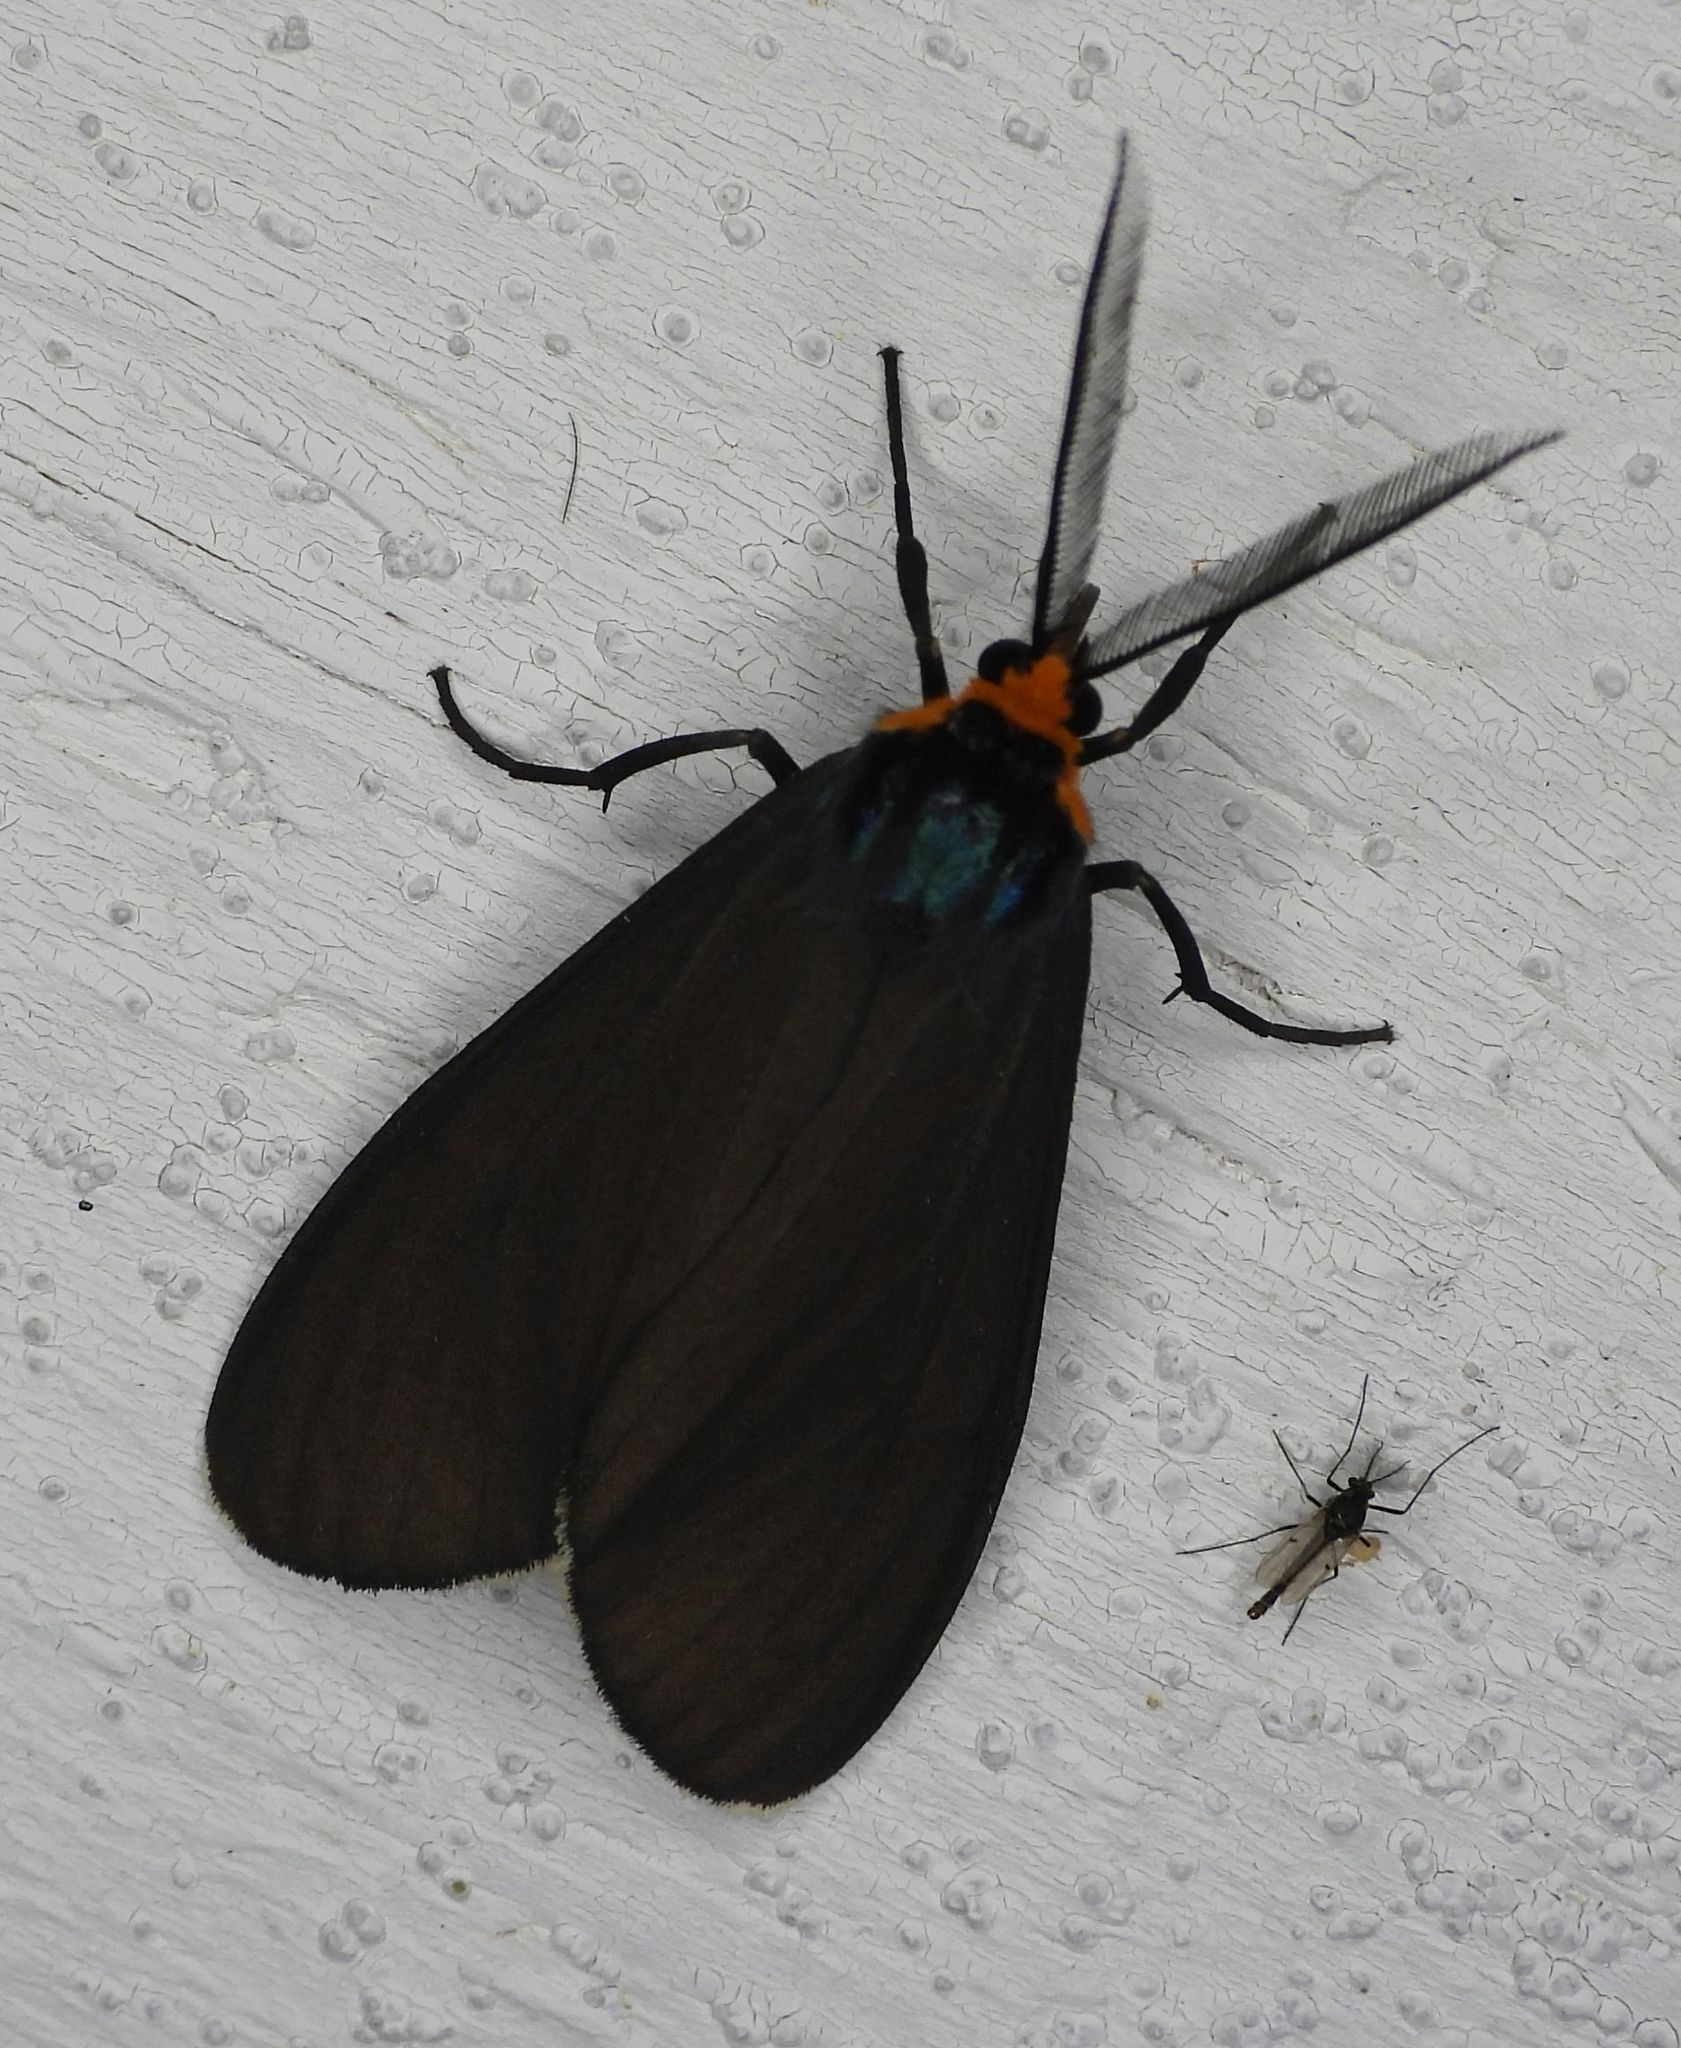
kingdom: Animalia
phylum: Arthropoda
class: Insecta
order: Lepidoptera
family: Erebidae
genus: Ctenucha
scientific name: Ctenucha virginica
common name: Virginia ctenucha moth
